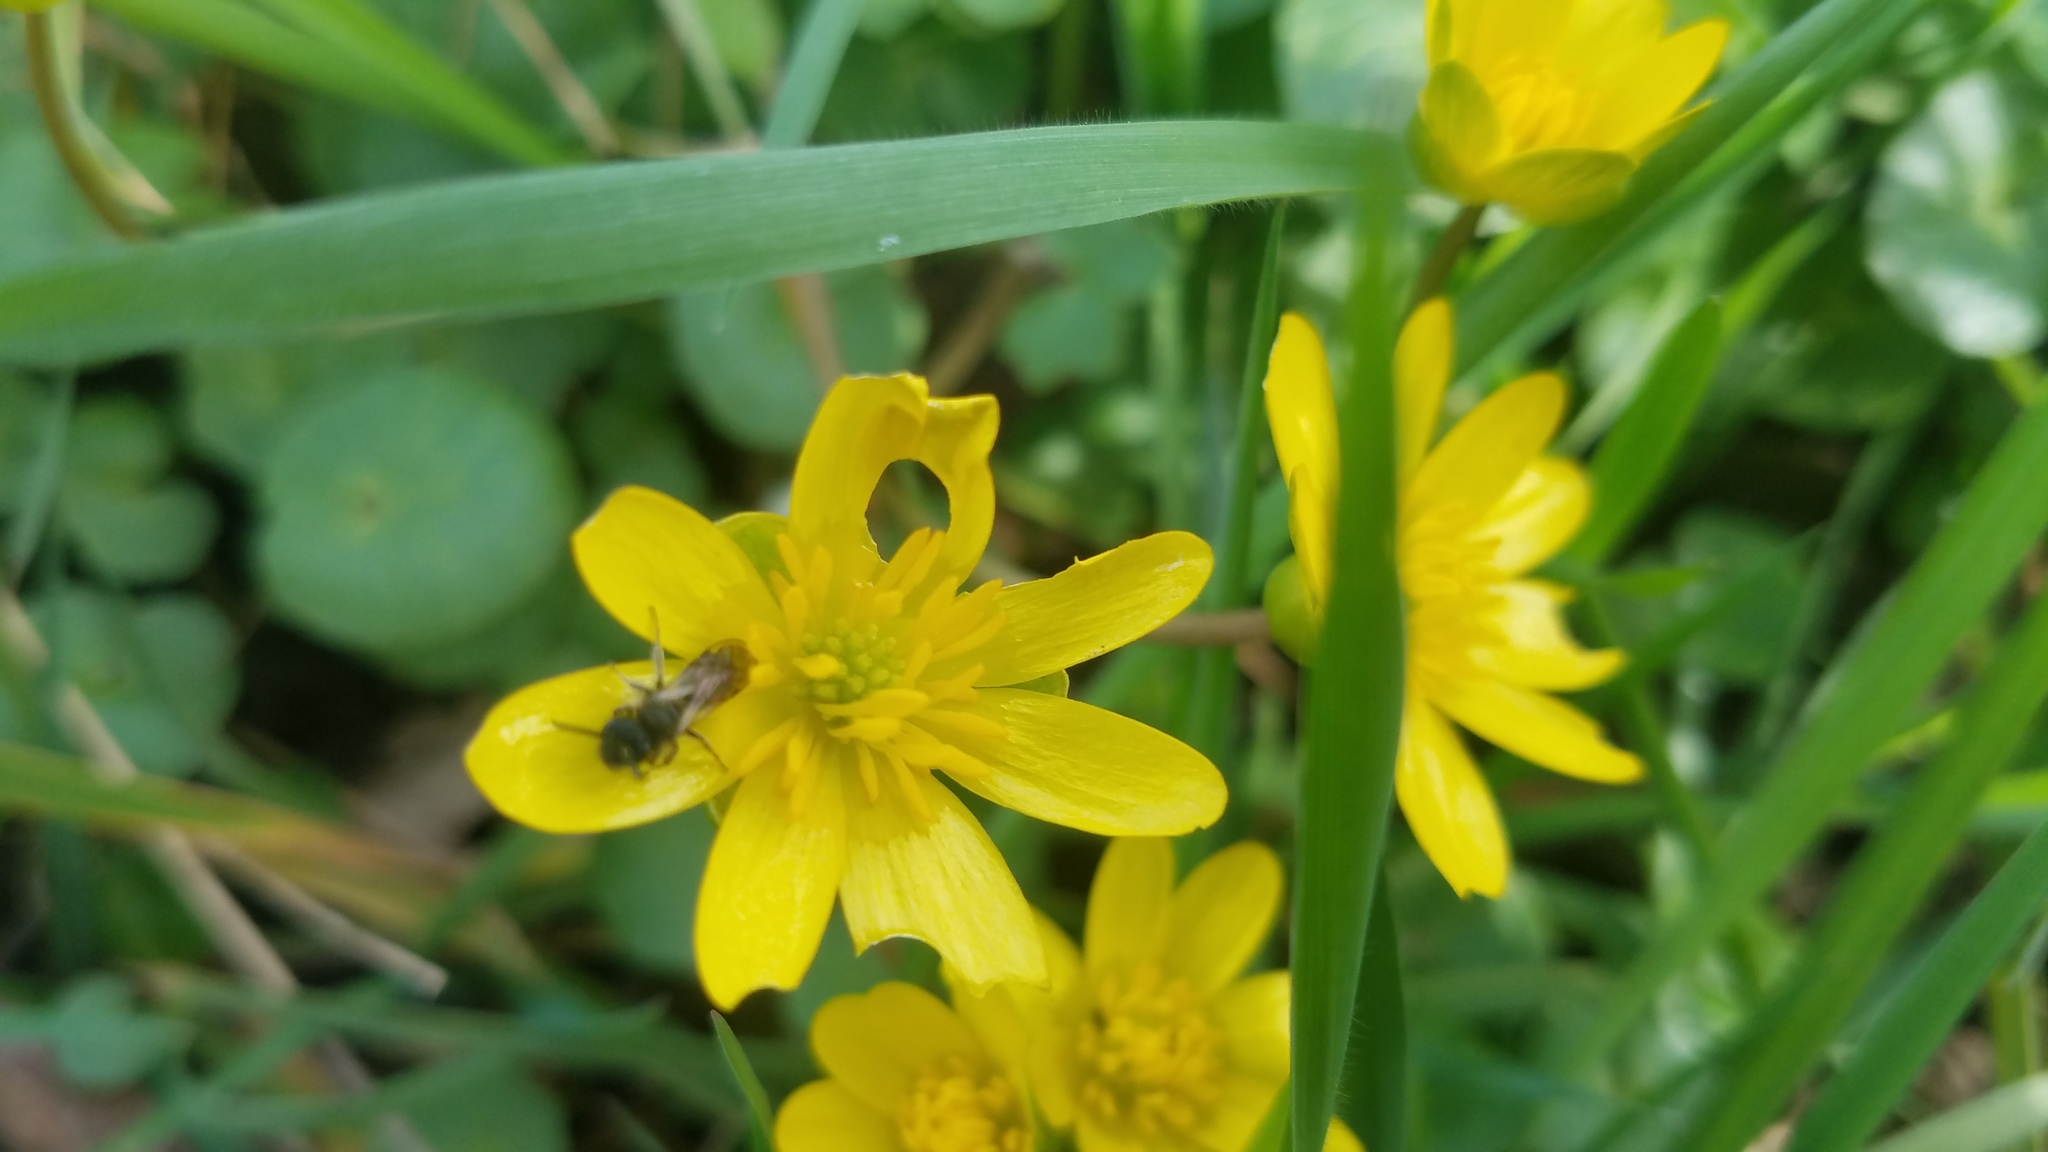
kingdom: Plantae
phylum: Tracheophyta
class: Magnoliopsida
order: Ranunculales
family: Ranunculaceae
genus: Ficaria
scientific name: Ficaria verna
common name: Lesser celandine
